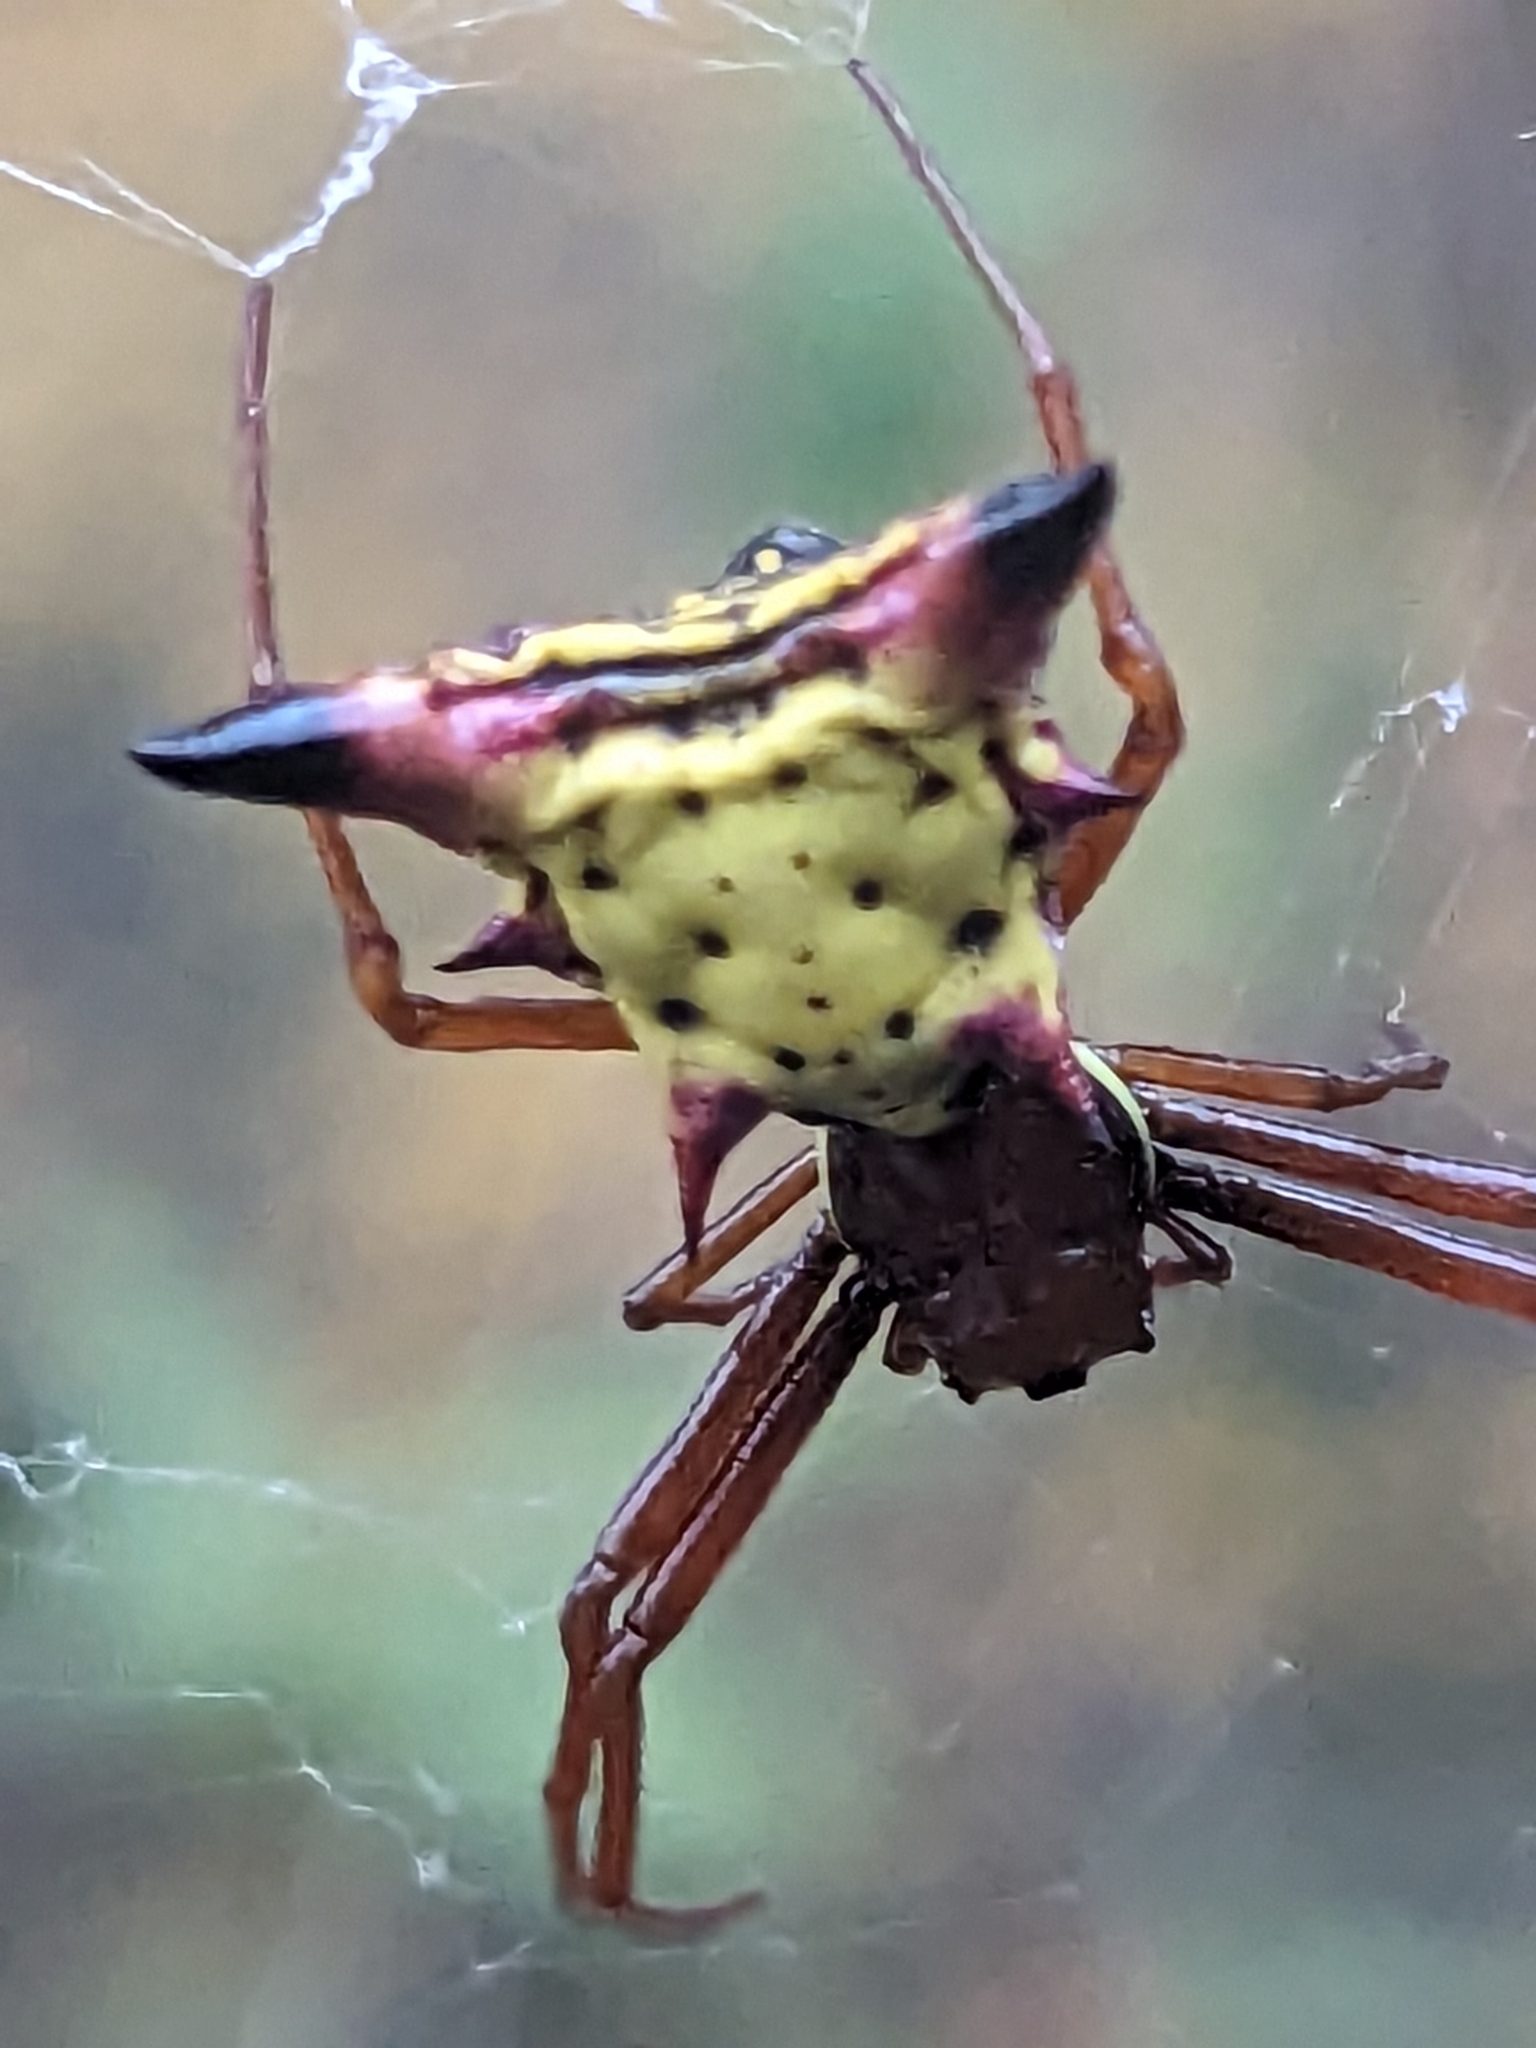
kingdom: Animalia
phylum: Arthropoda
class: Arachnida
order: Araneae
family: Araneidae
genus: Micrathena
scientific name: Micrathena sagittata
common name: Orb weavers
